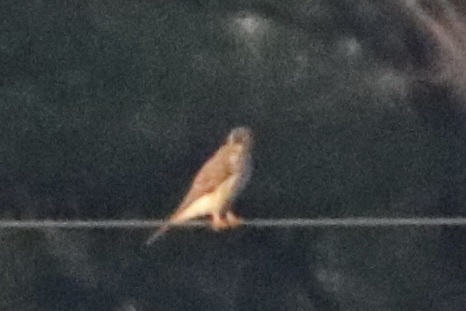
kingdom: Animalia
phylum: Chordata
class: Aves
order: Falconiformes
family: Falconidae
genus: Falco
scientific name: Falco sparverius
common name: American kestrel
